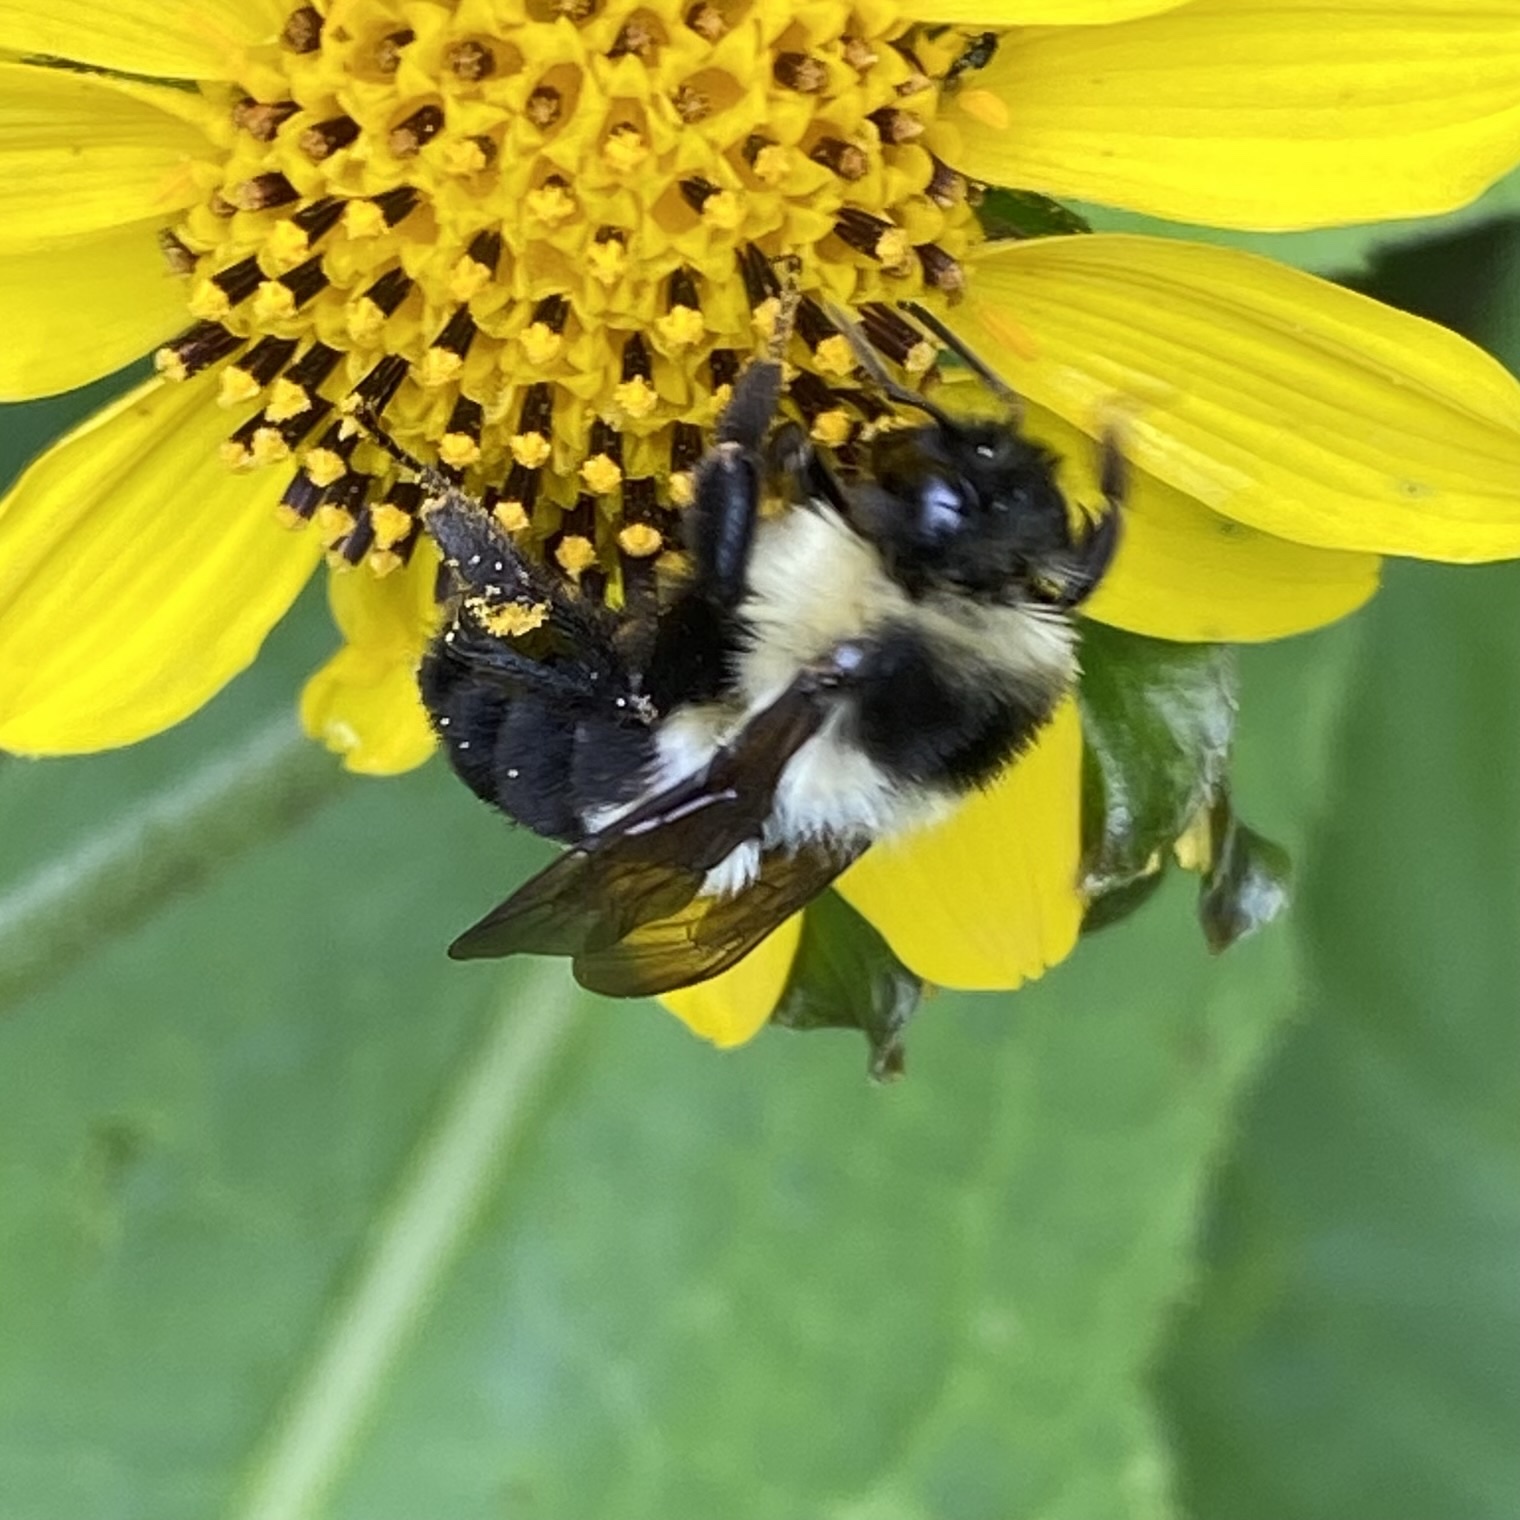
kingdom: Animalia
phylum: Arthropoda
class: Insecta
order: Hymenoptera
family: Apidae
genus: Bombus
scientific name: Bombus wilmattae
